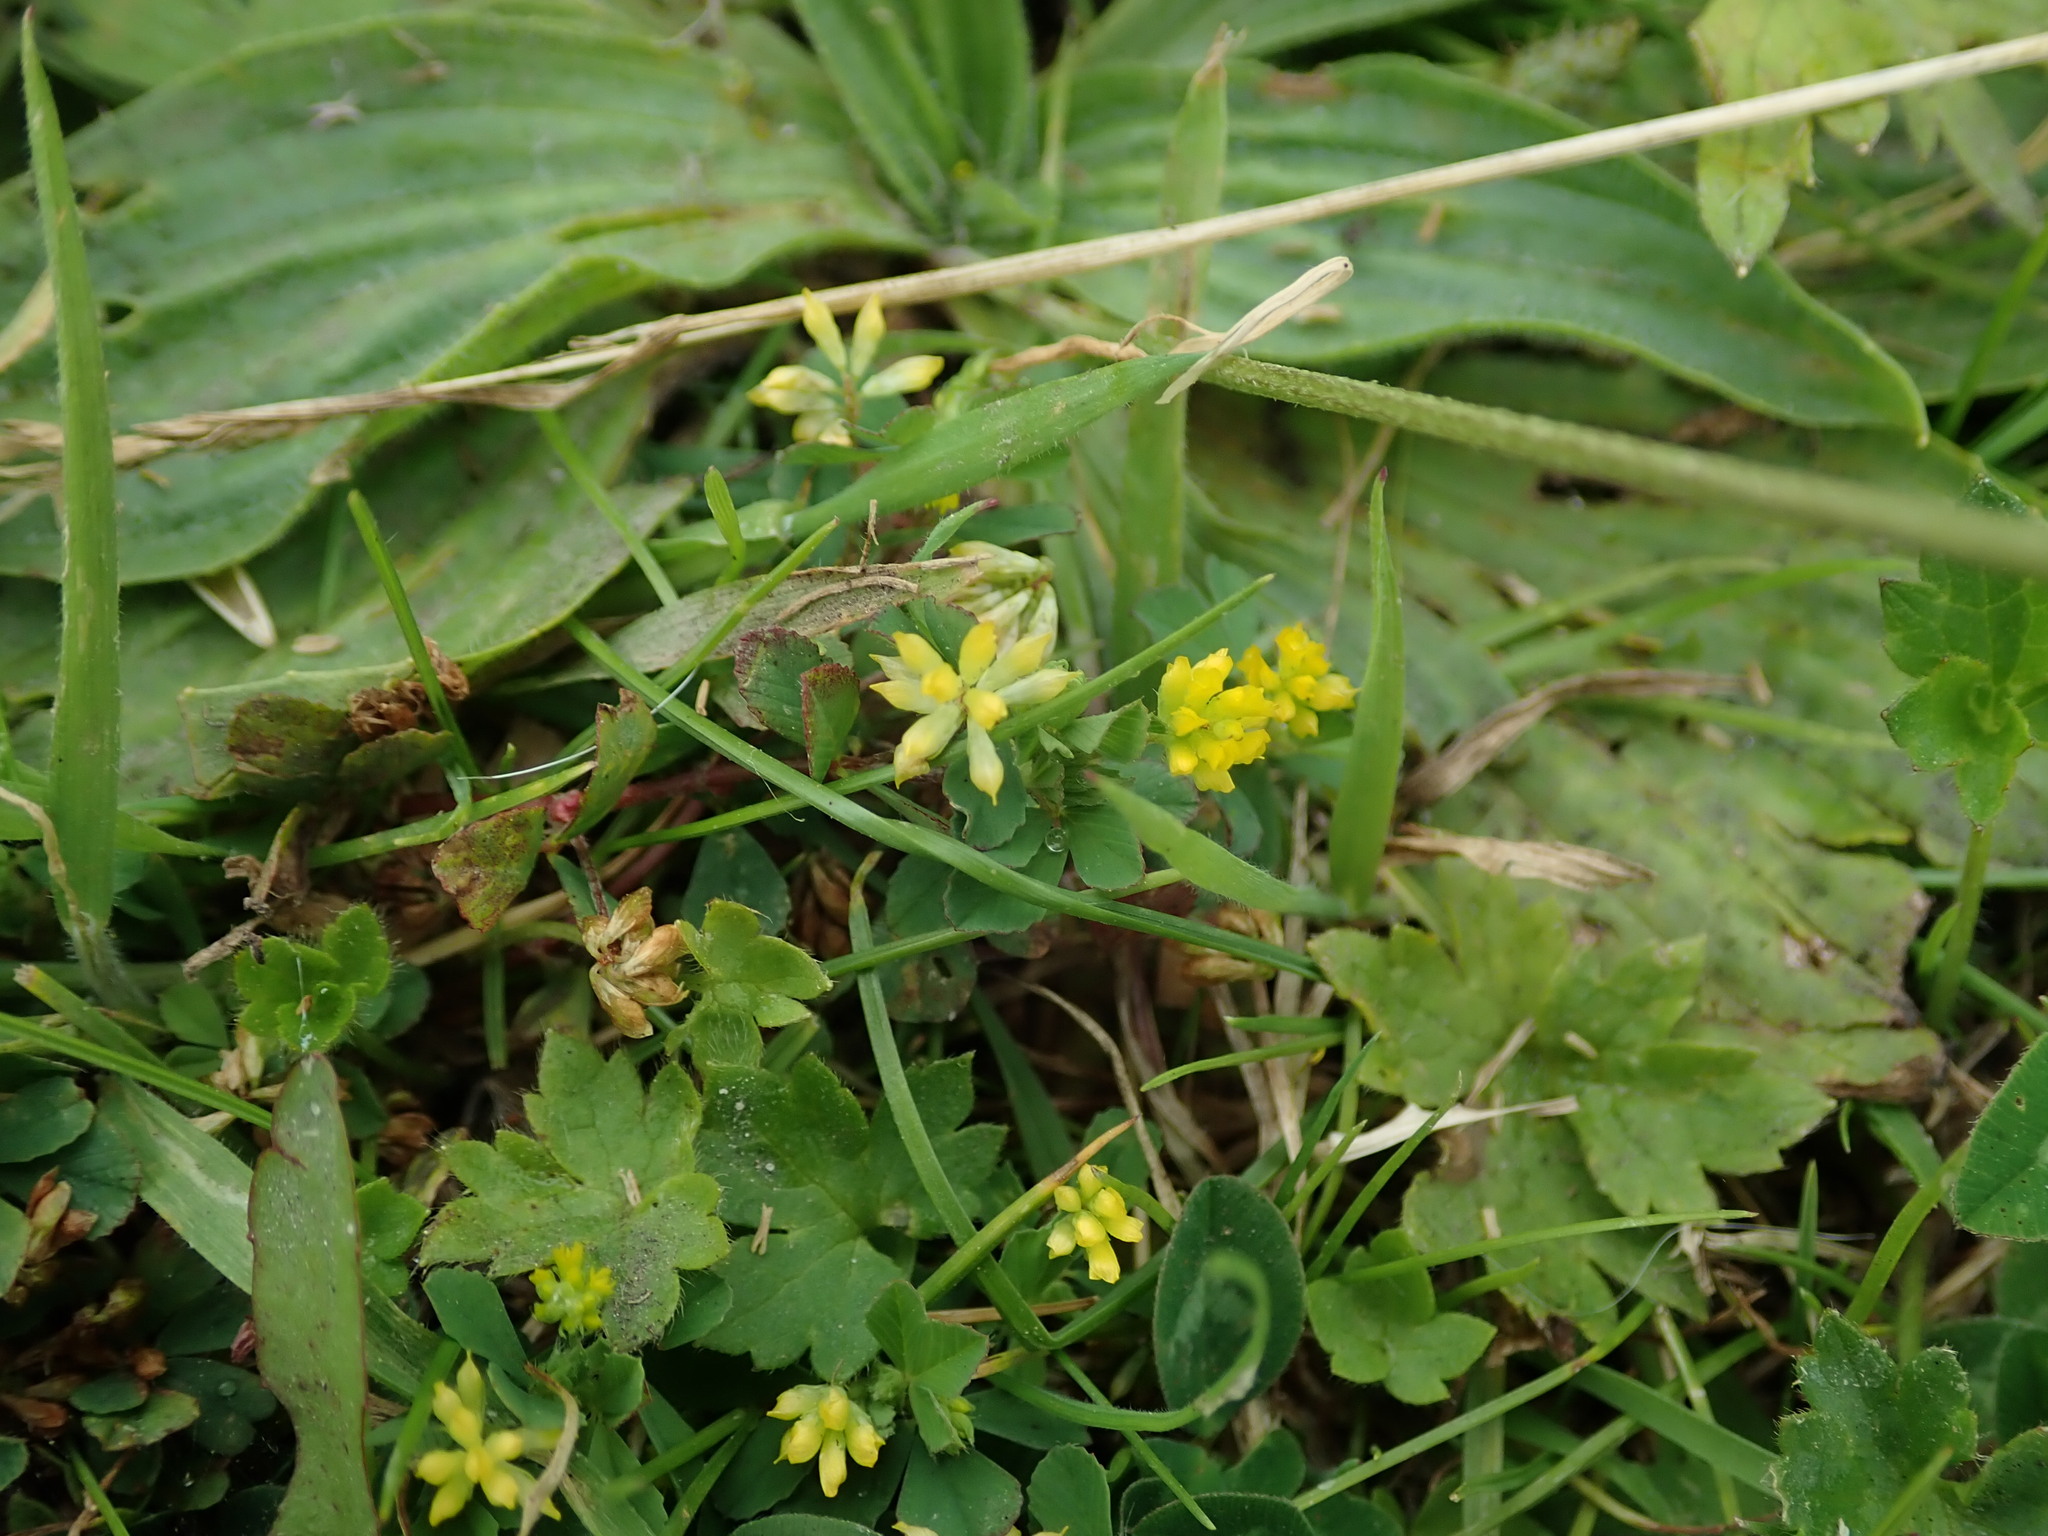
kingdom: Plantae
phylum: Tracheophyta
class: Magnoliopsida
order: Fabales
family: Fabaceae
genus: Trifolium
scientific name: Trifolium dubium
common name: Suckling clover
